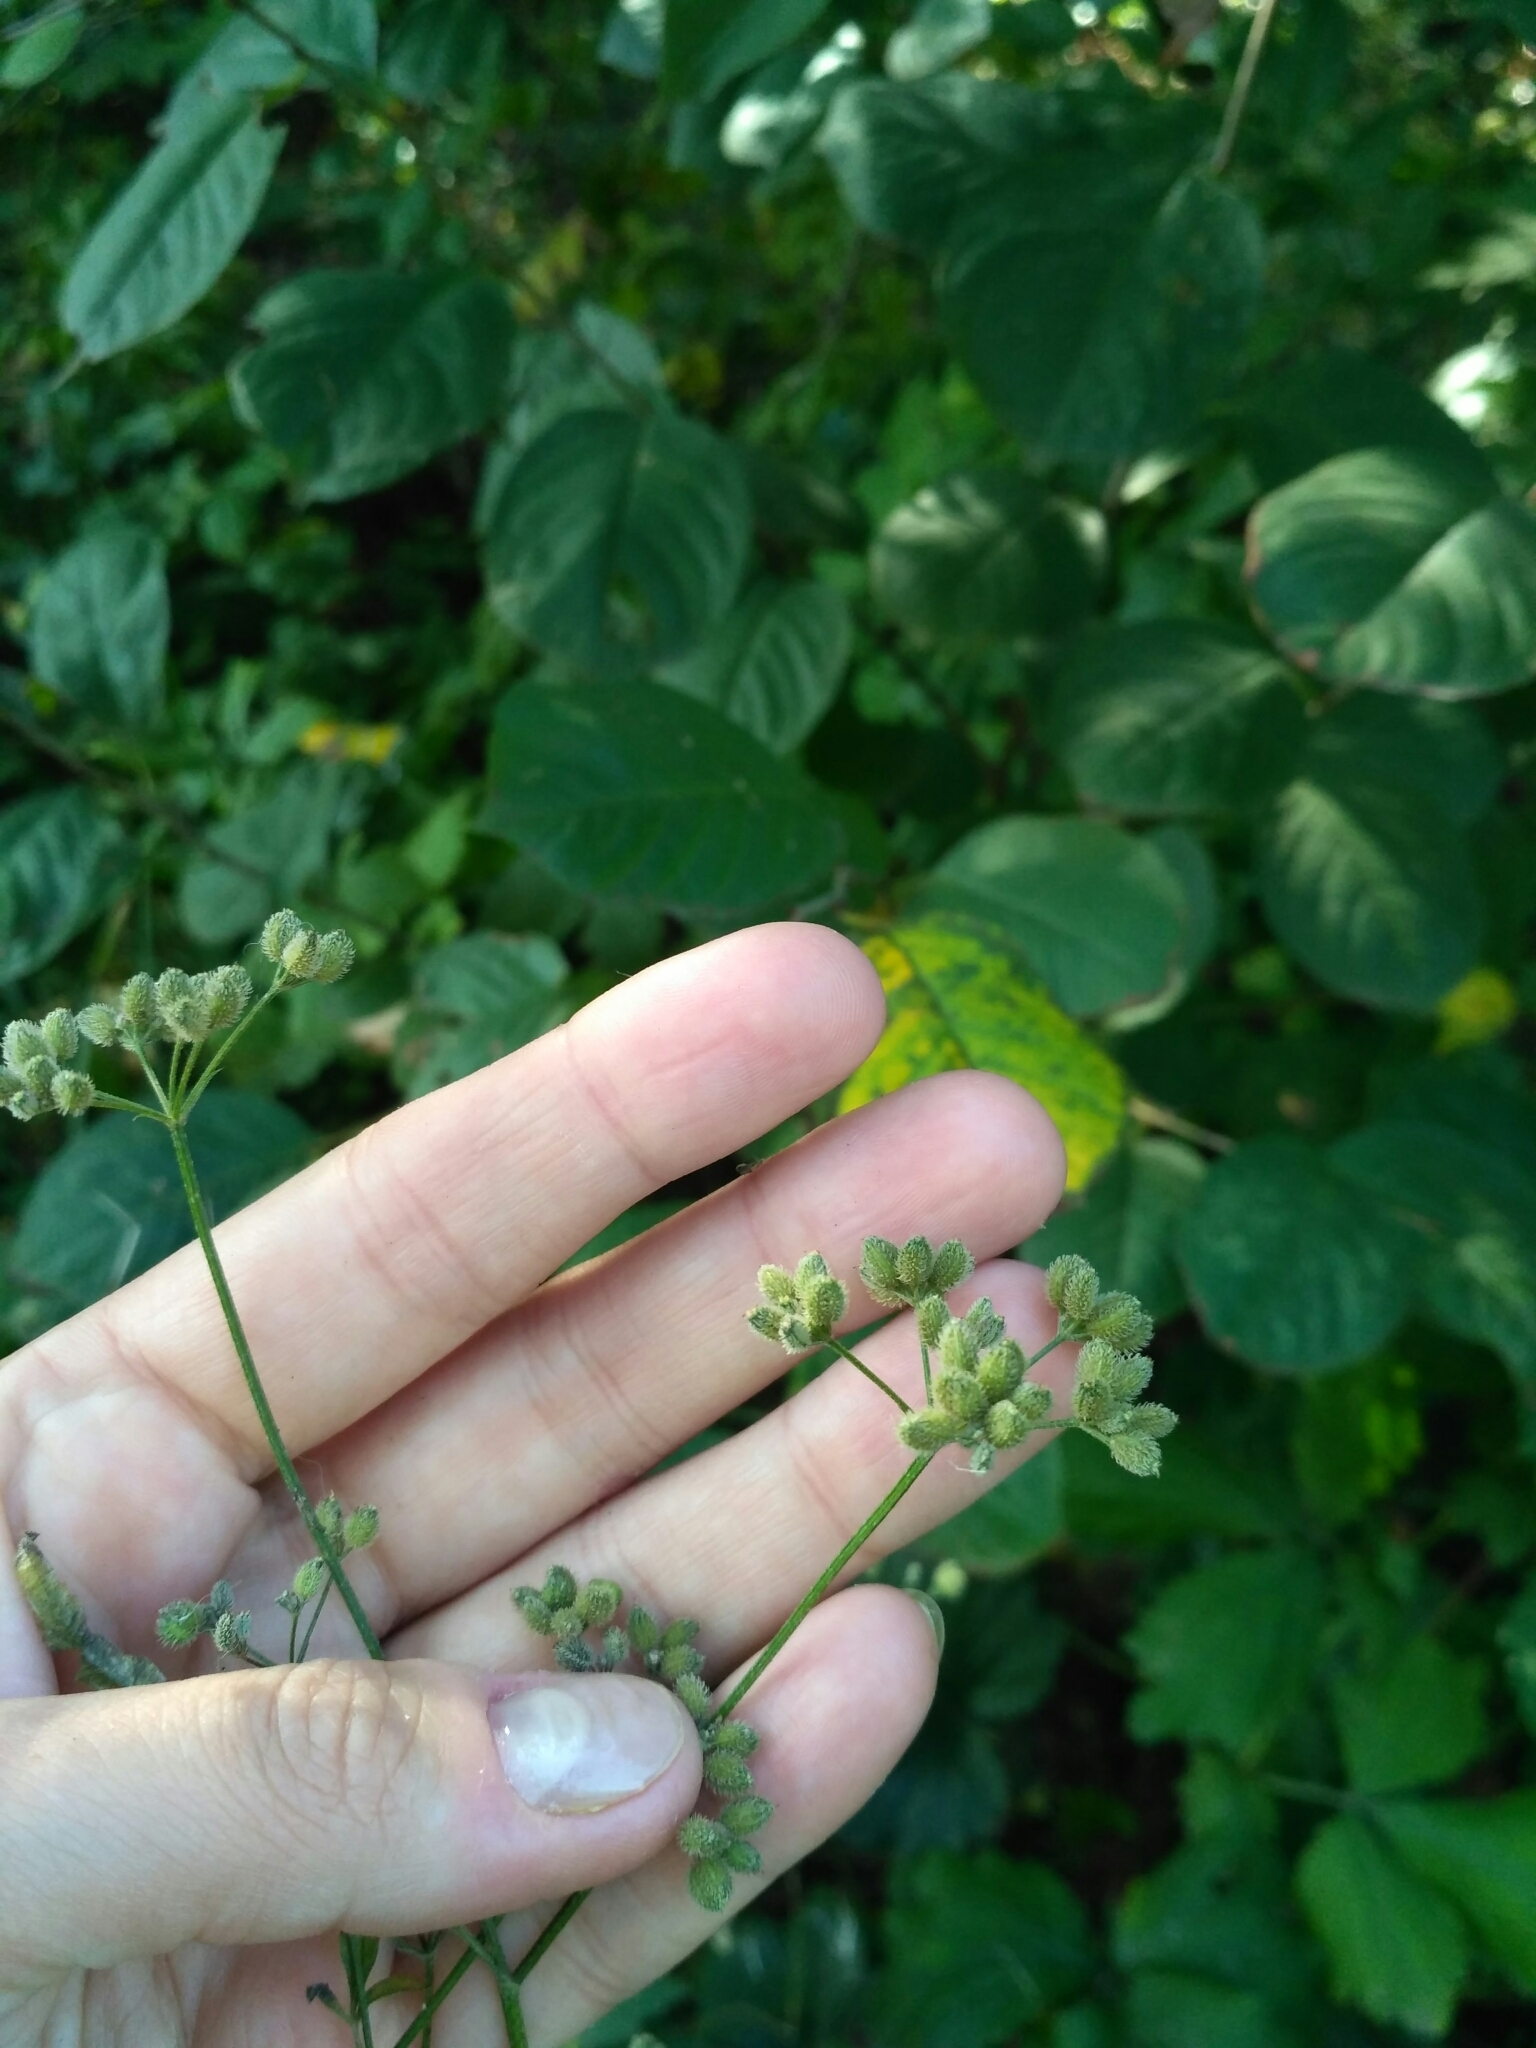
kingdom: Plantae
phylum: Tracheophyta
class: Magnoliopsida
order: Apiales
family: Apiaceae
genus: Torilis
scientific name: Torilis japonica
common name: Upright hedge-parsley
